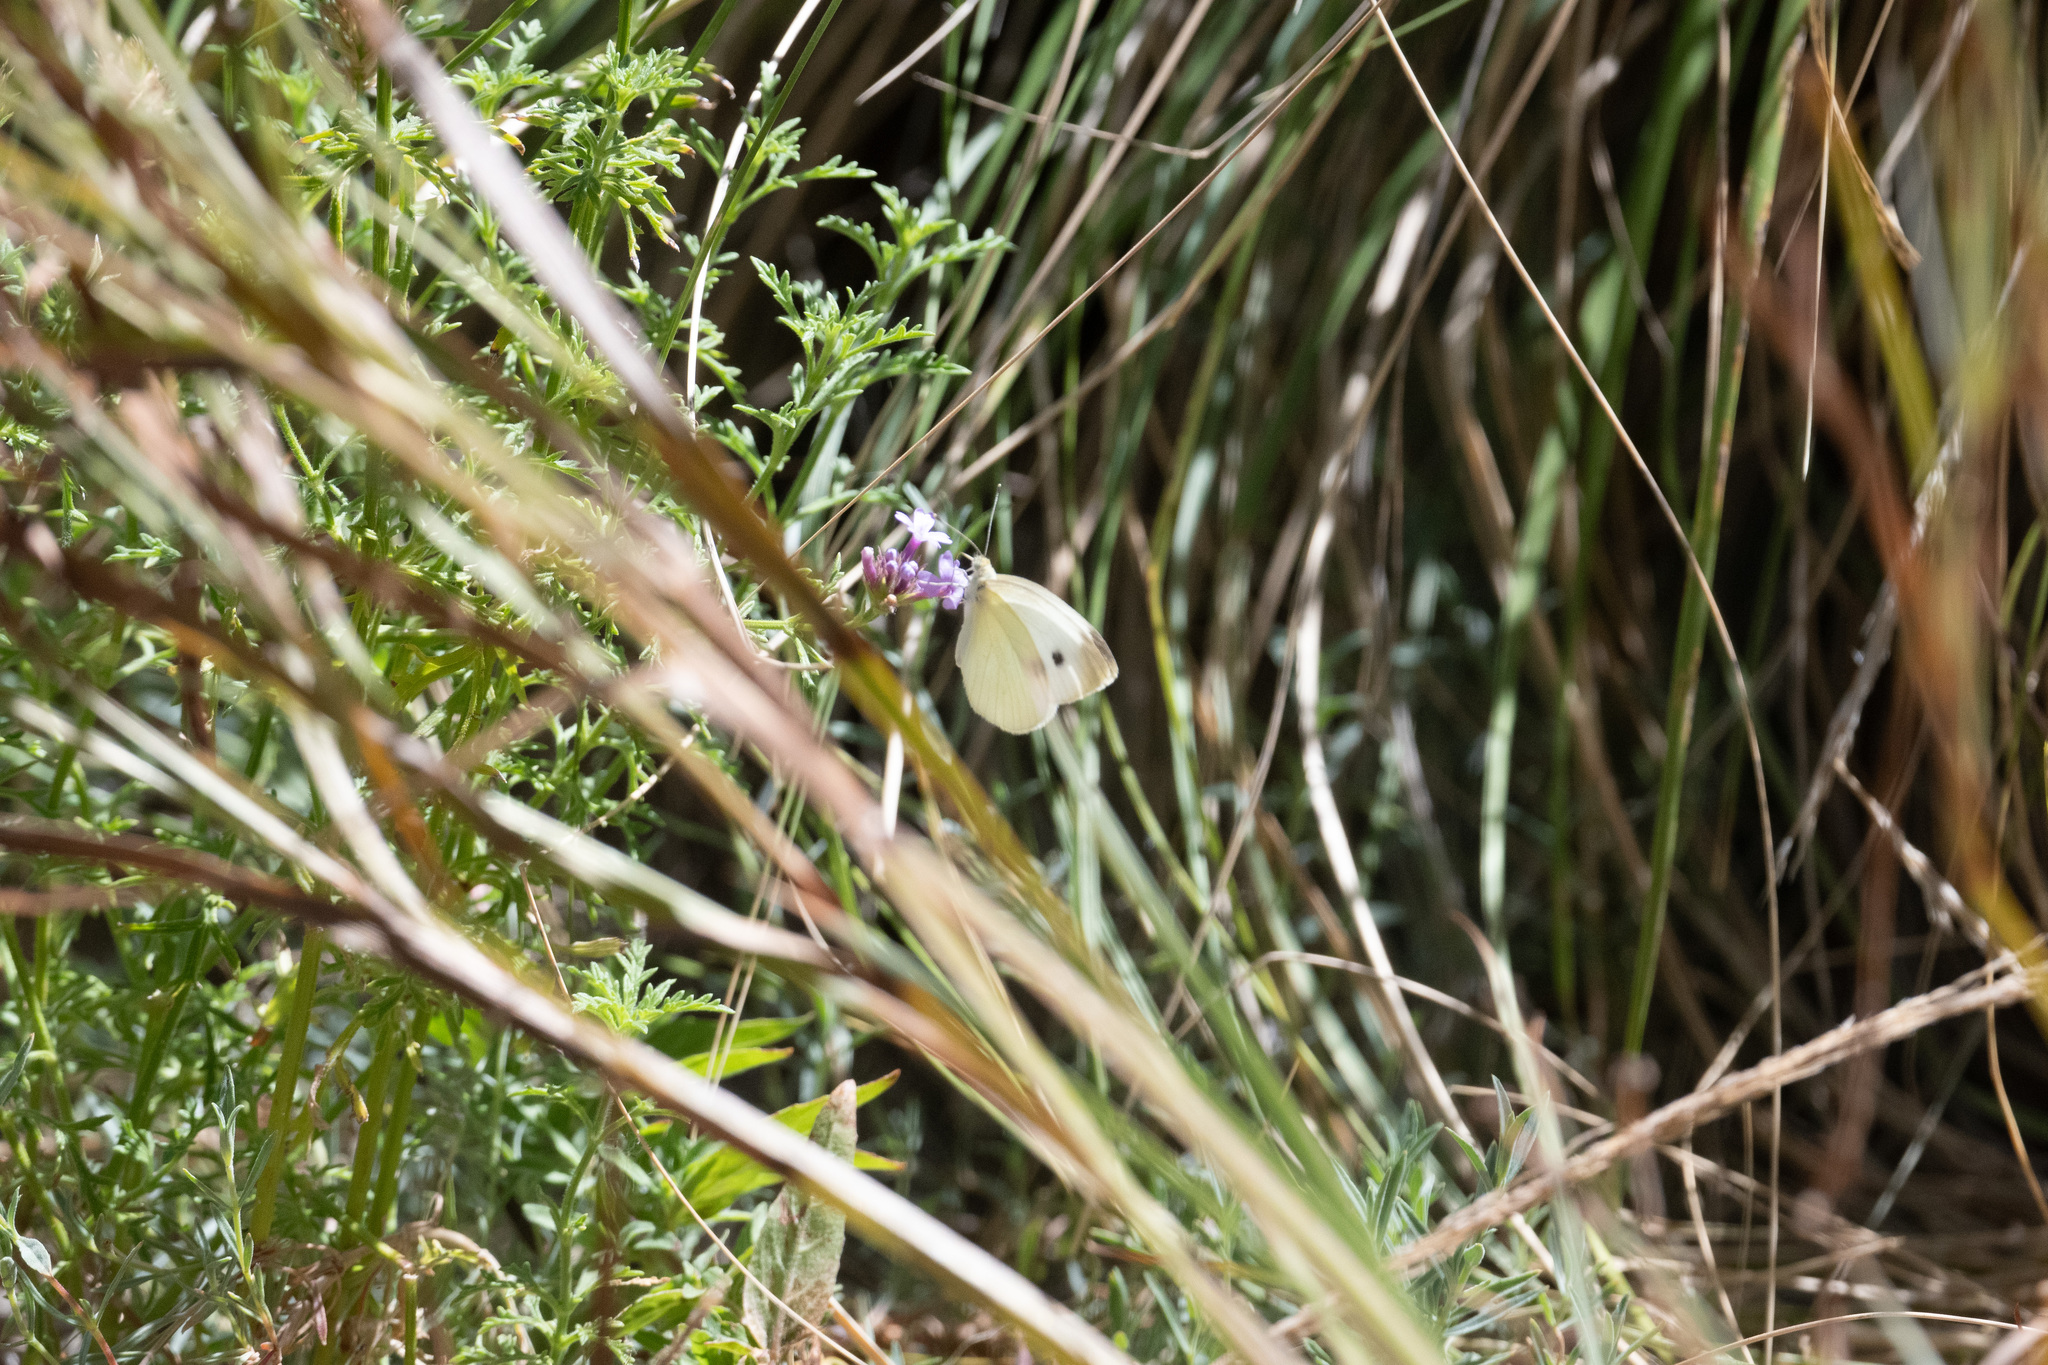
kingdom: Animalia
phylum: Arthropoda
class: Insecta
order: Lepidoptera
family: Pieridae
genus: Pieris
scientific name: Pieris rapae
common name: Small white
